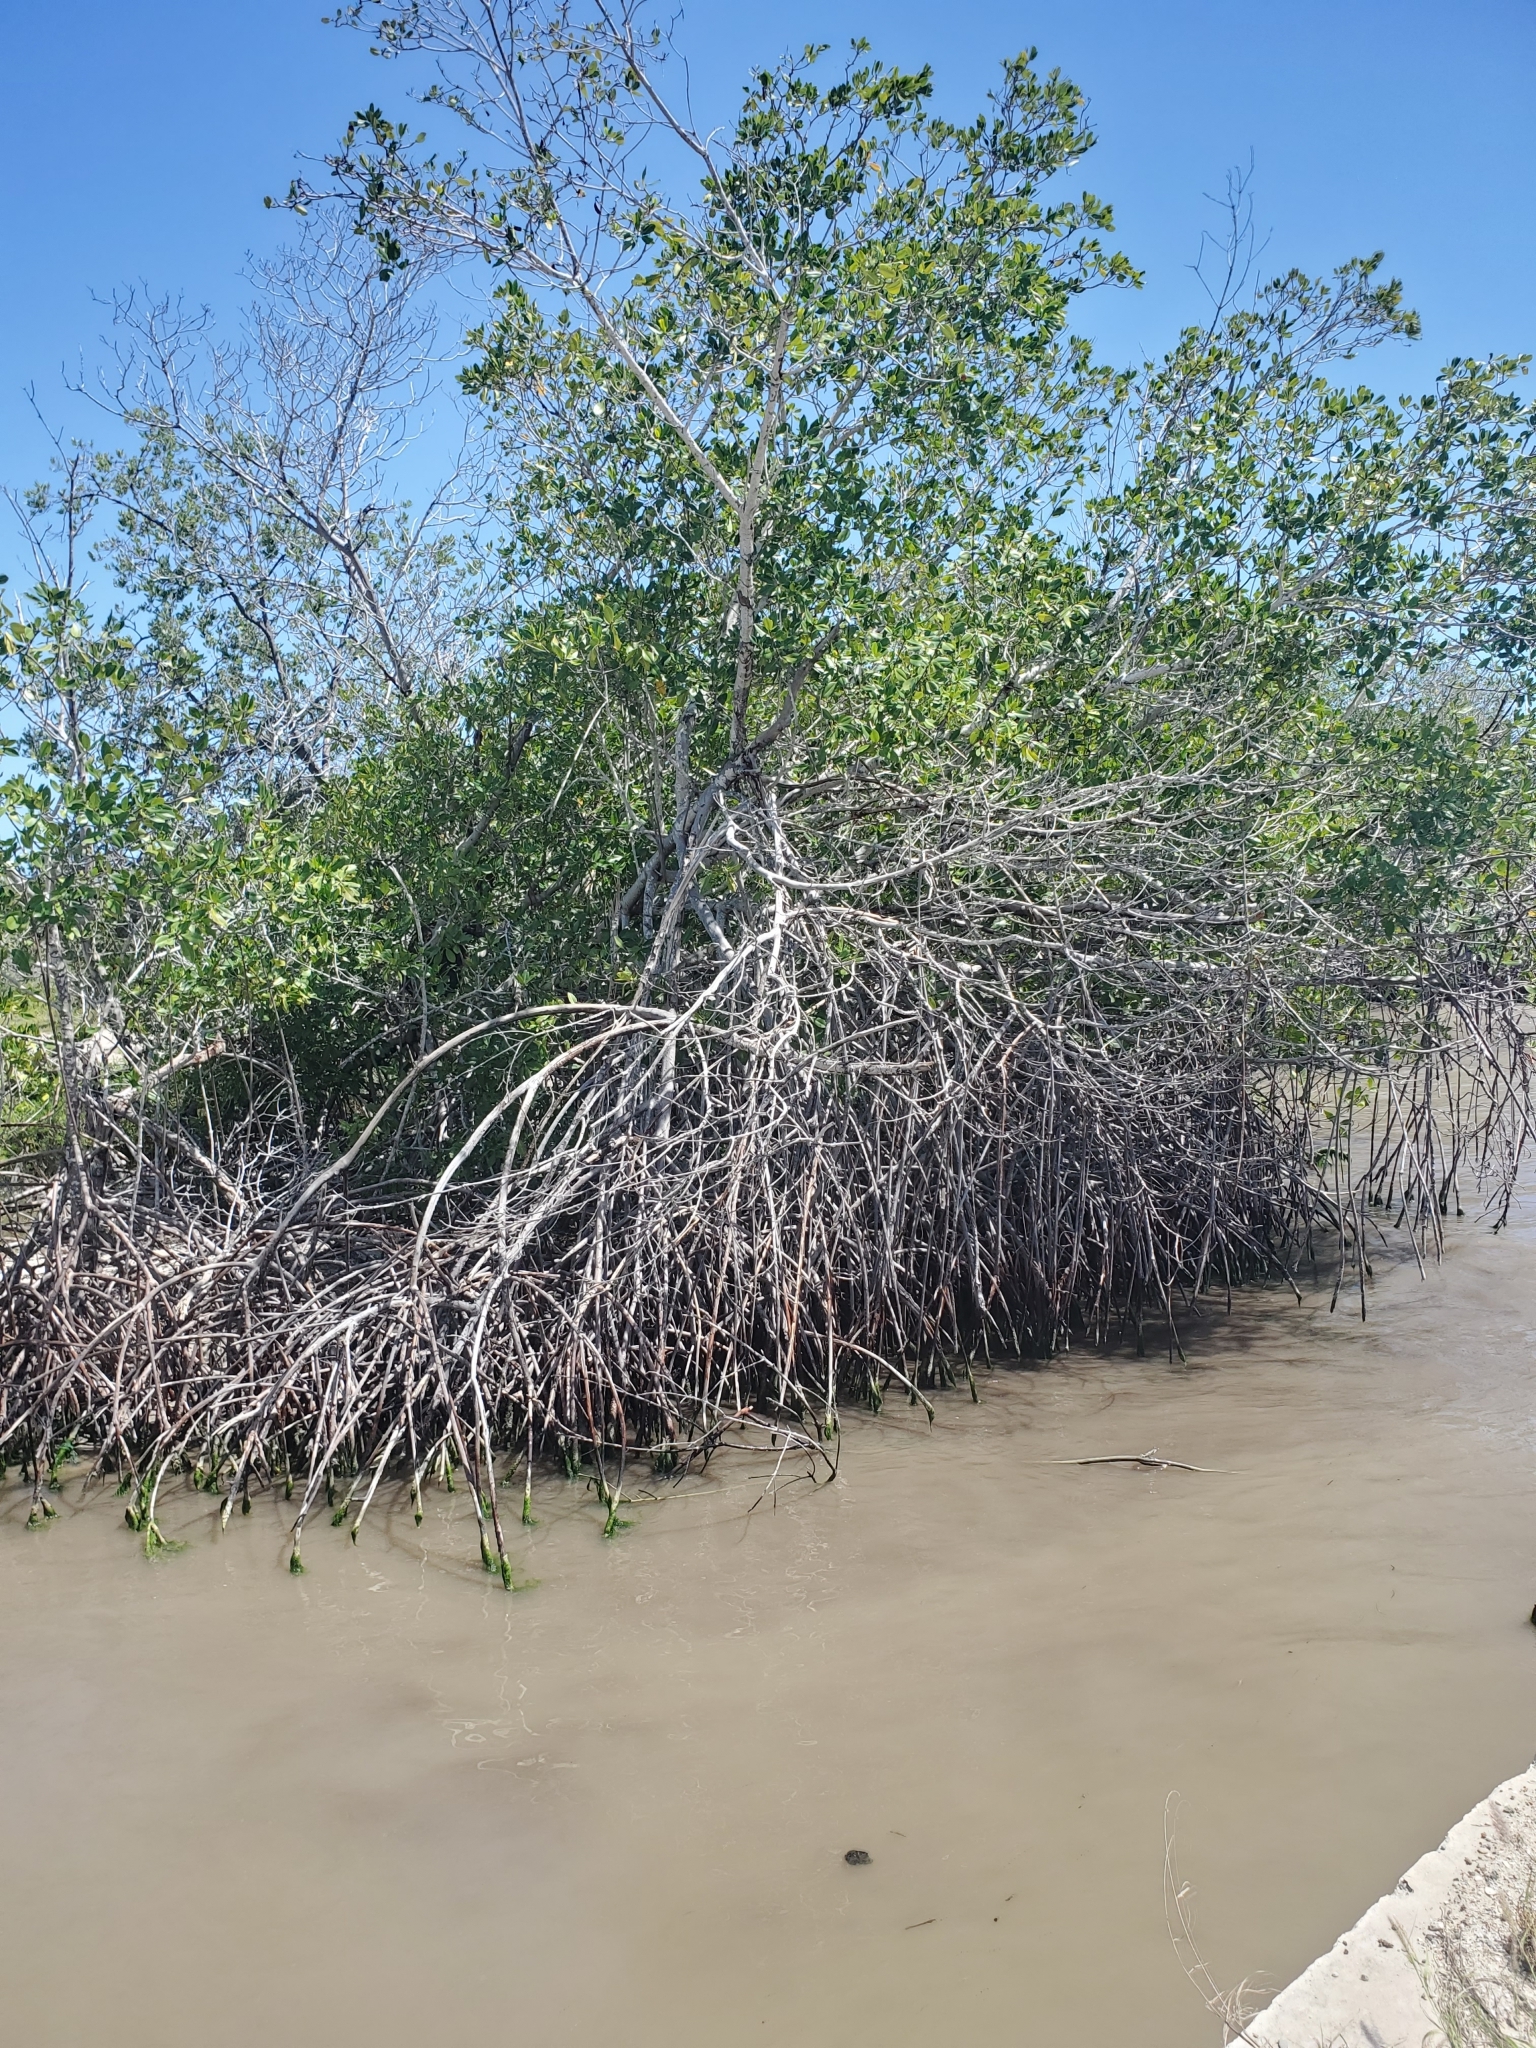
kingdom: Plantae
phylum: Tracheophyta
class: Magnoliopsida
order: Malpighiales
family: Rhizophoraceae
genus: Rhizophora
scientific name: Rhizophora mangle
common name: Red mangrove
